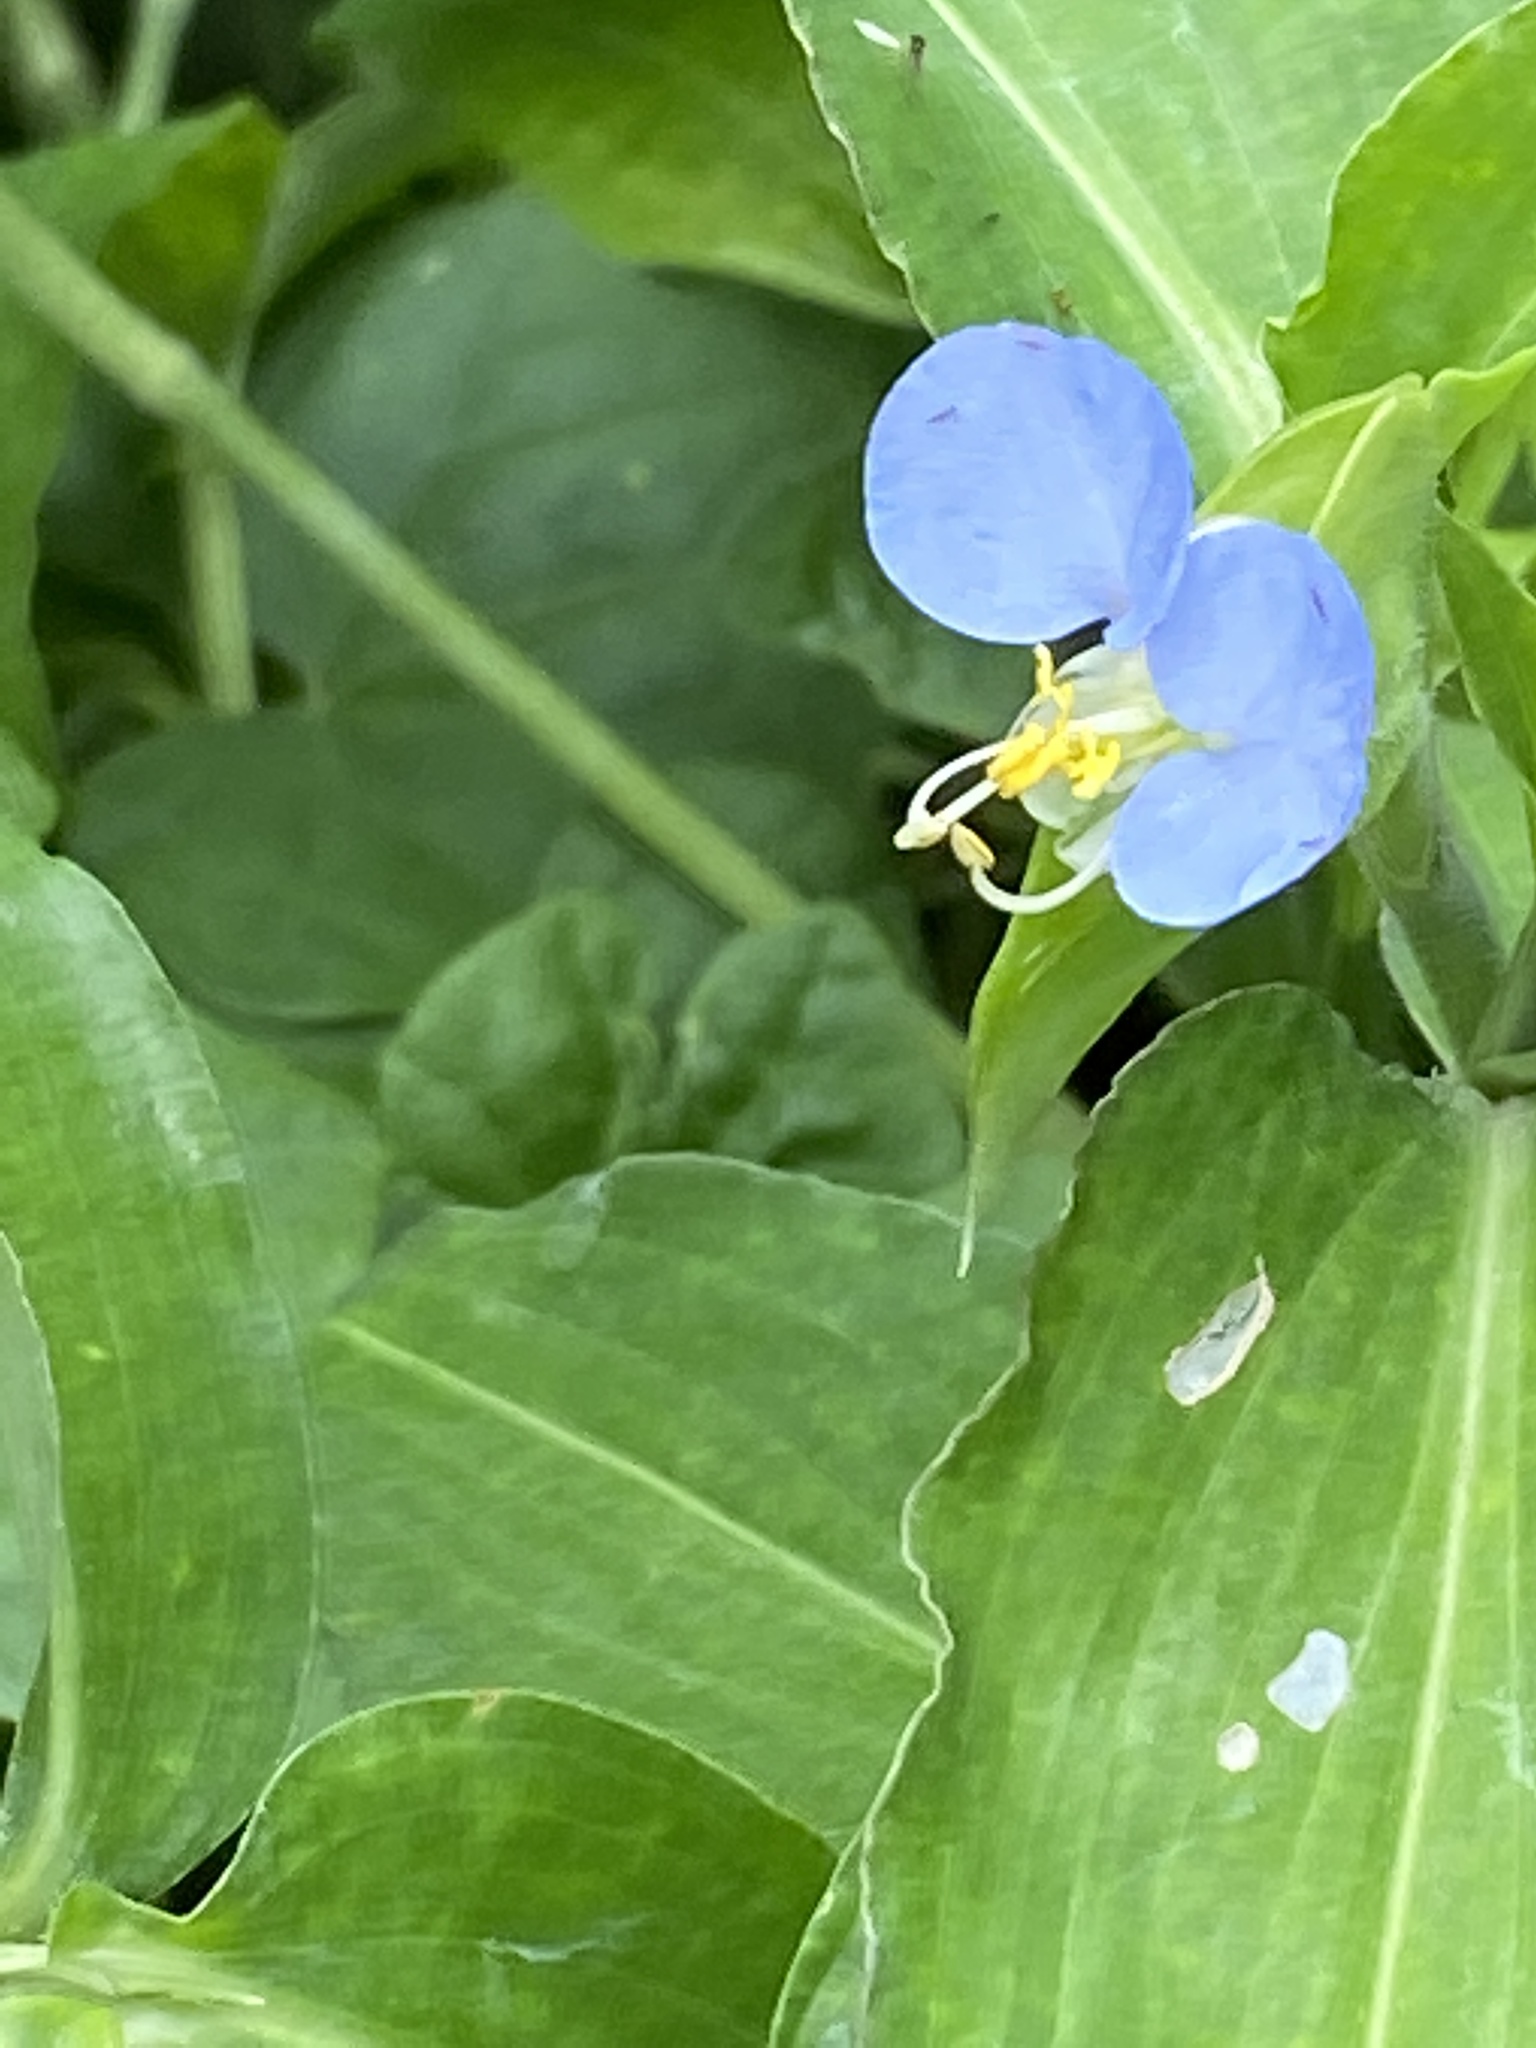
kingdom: Plantae
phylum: Tracheophyta
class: Liliopsida
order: Commelinales
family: Commelinaceae
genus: Commelina
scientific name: Commelina erecta
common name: Blousel blommetjie
